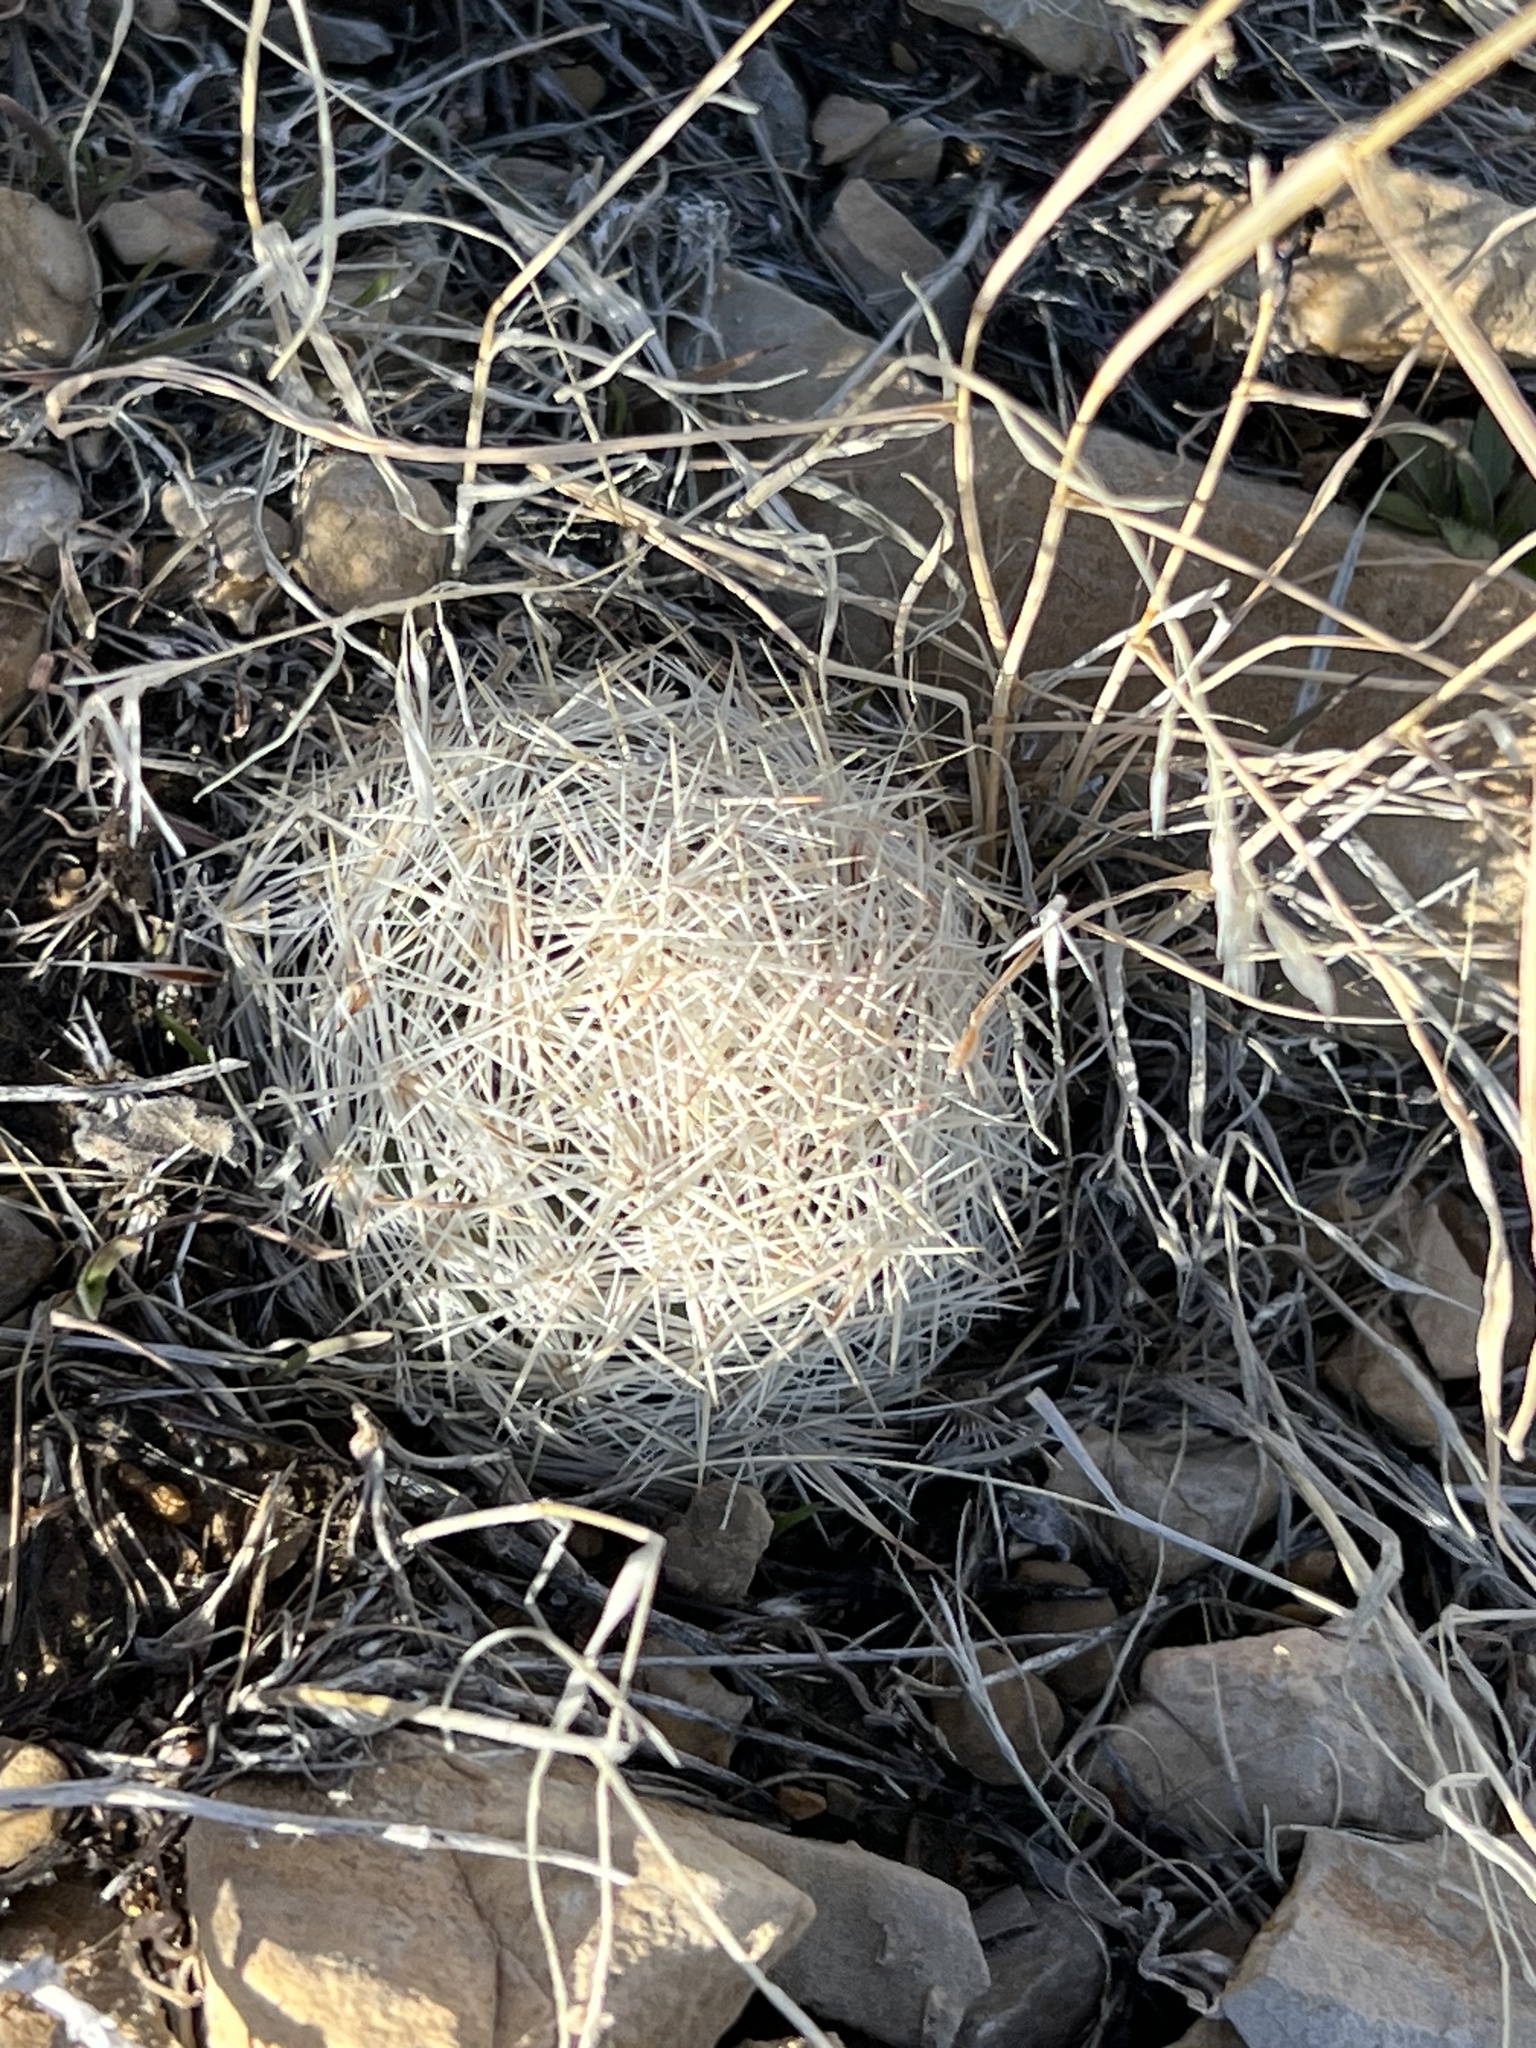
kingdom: Plantae
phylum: Tracheophyta
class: Magnoliopsida
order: Caryophyllales
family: Cactaceae
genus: Pelecyphora
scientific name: Pelecyphora dasyacantha
